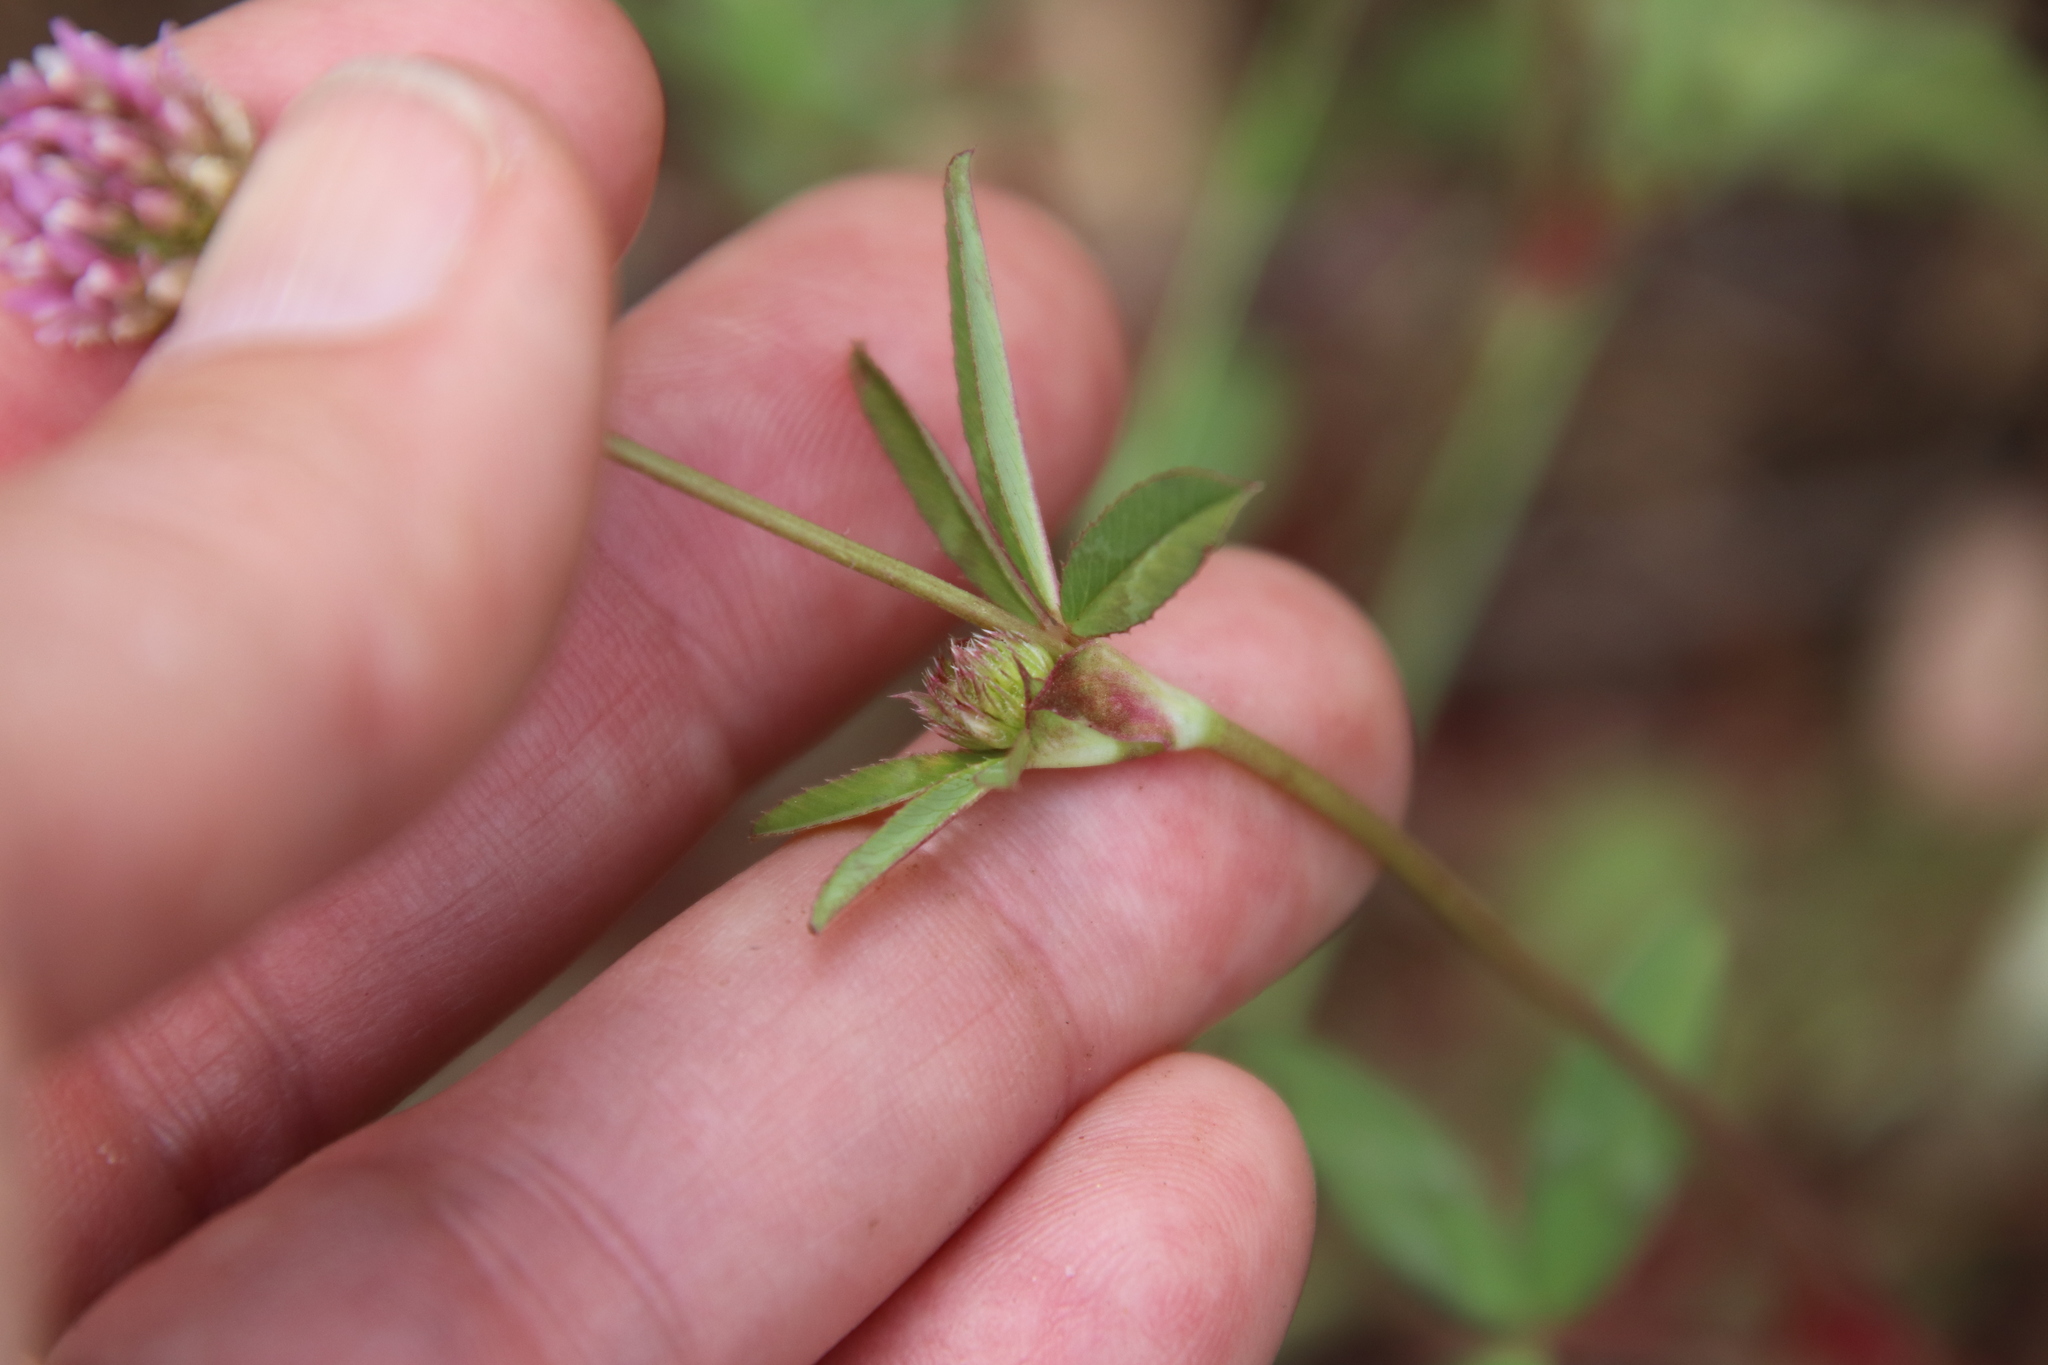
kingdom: Plantae
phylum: Tracheophyta
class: Magnoliopsida
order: Fabales
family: Fabaceae
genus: Trifolium
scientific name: Trifolium ciliolatum
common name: Foothill clover
